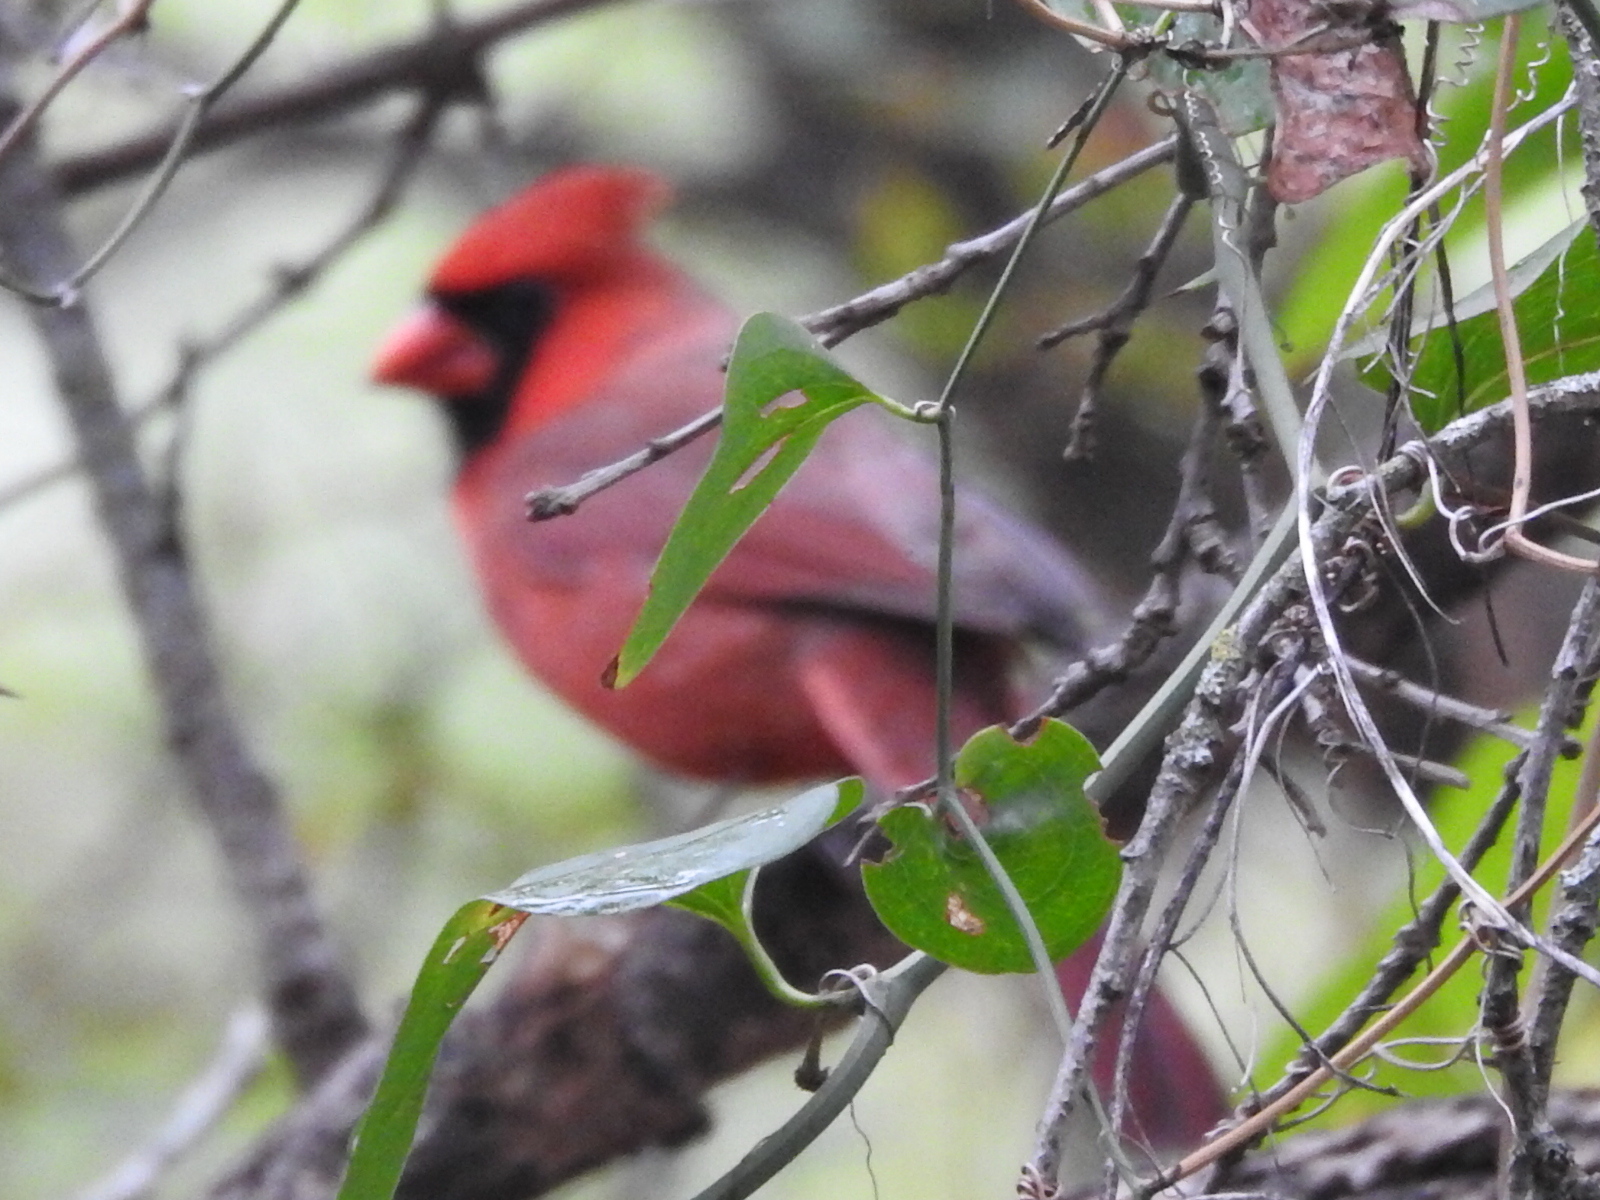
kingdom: Animalia
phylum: Chordata
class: Aves
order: Passeriformes
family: Cardinalidae
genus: Cardinalis
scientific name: Cardinalis cardinalis
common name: Northern cardinal
